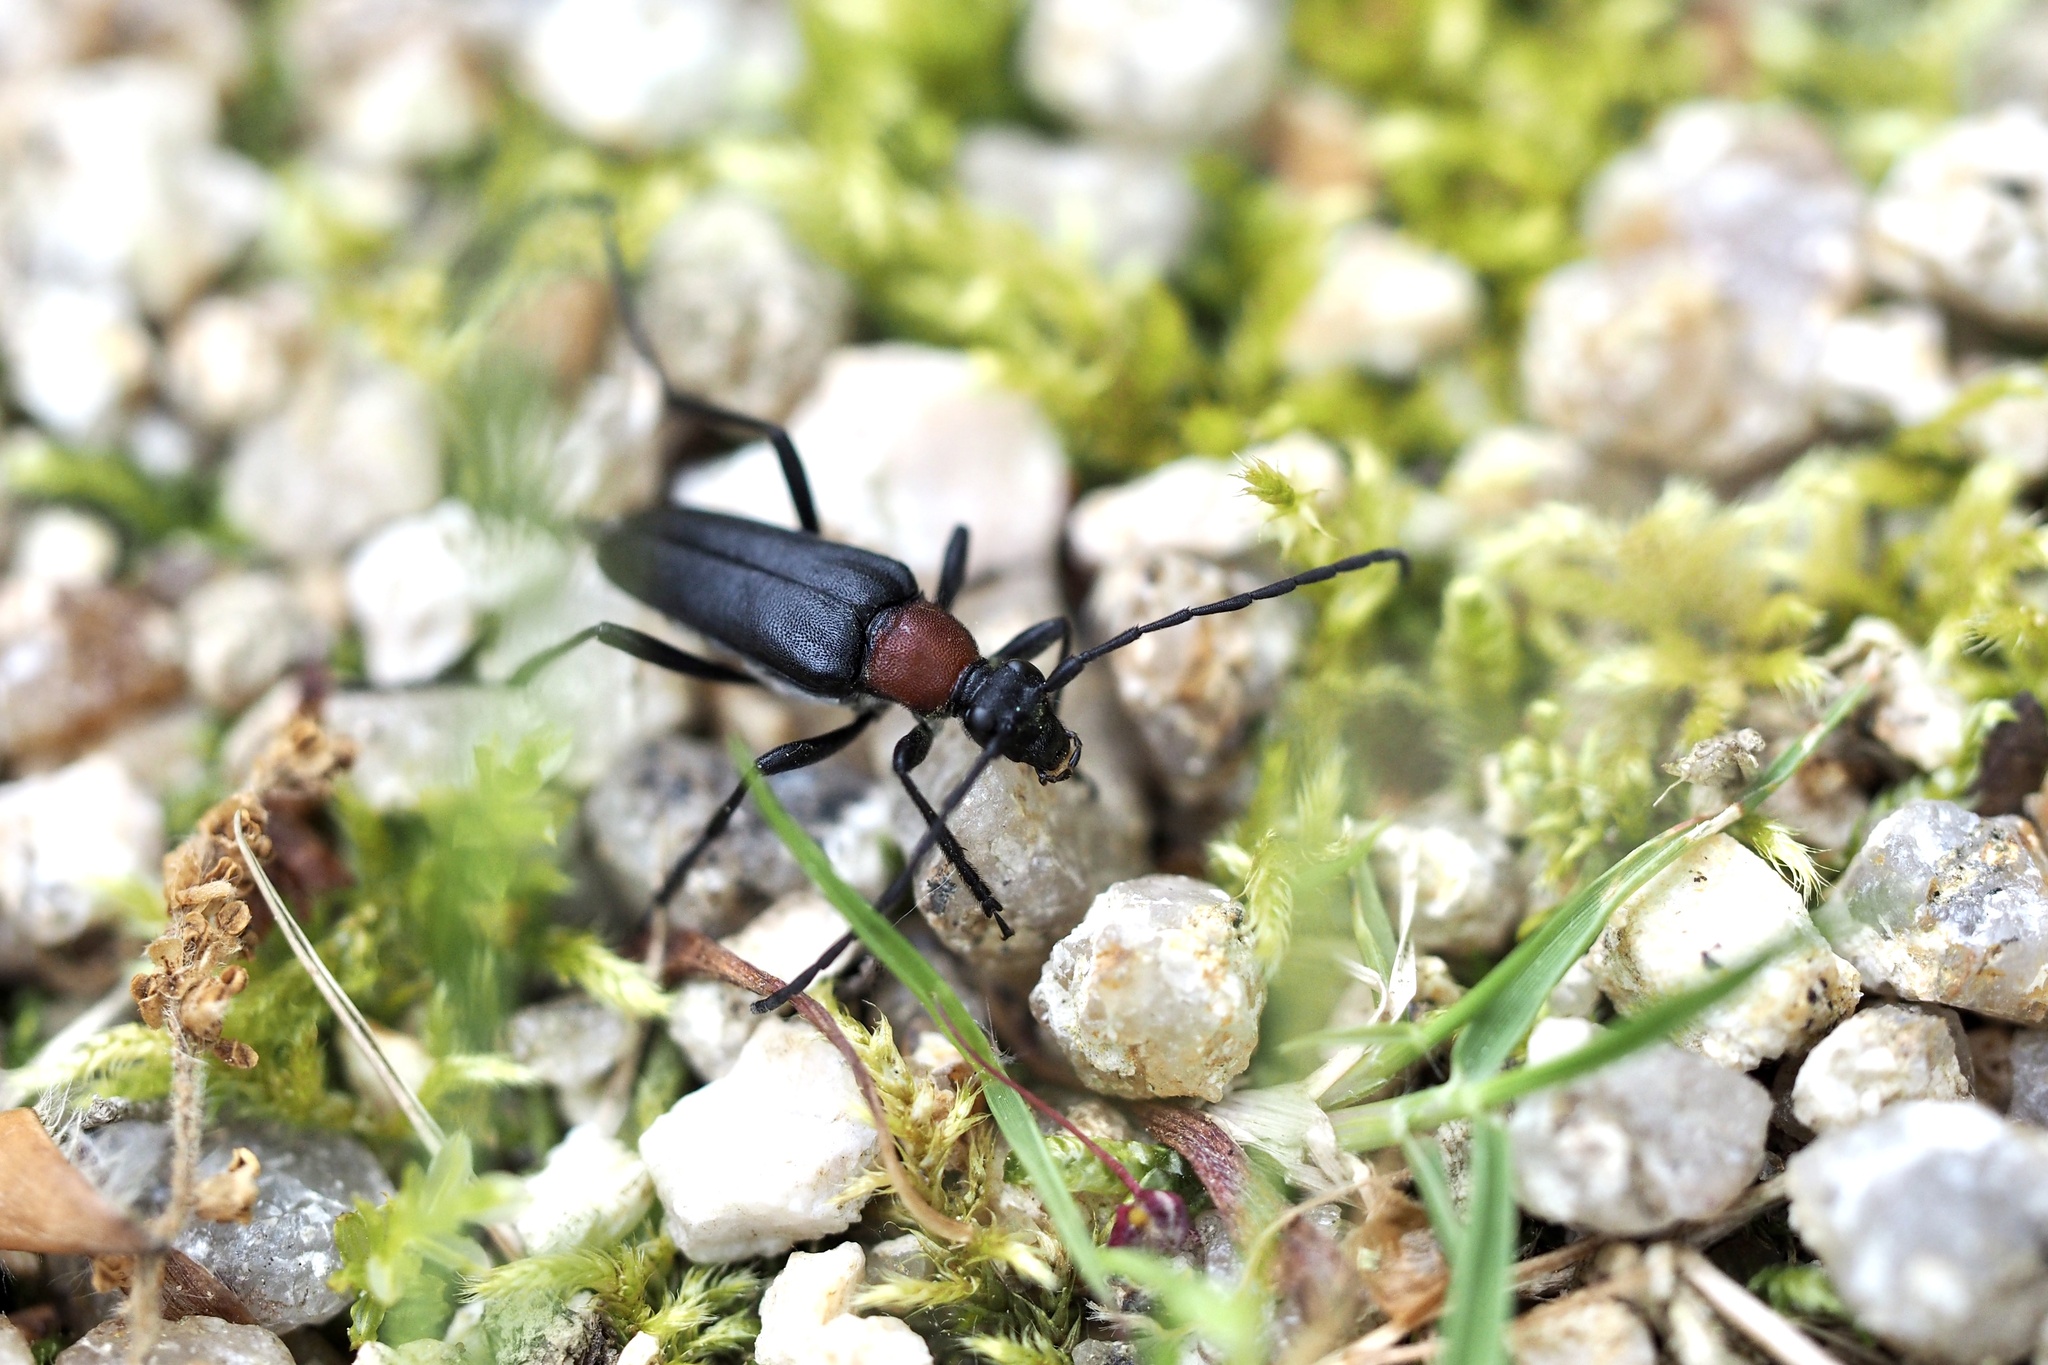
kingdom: Animalia
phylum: Arthropoda
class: Insecta
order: Coleoptera
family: Cerambycidae
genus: Leptura
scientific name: Leptura dimorpha
